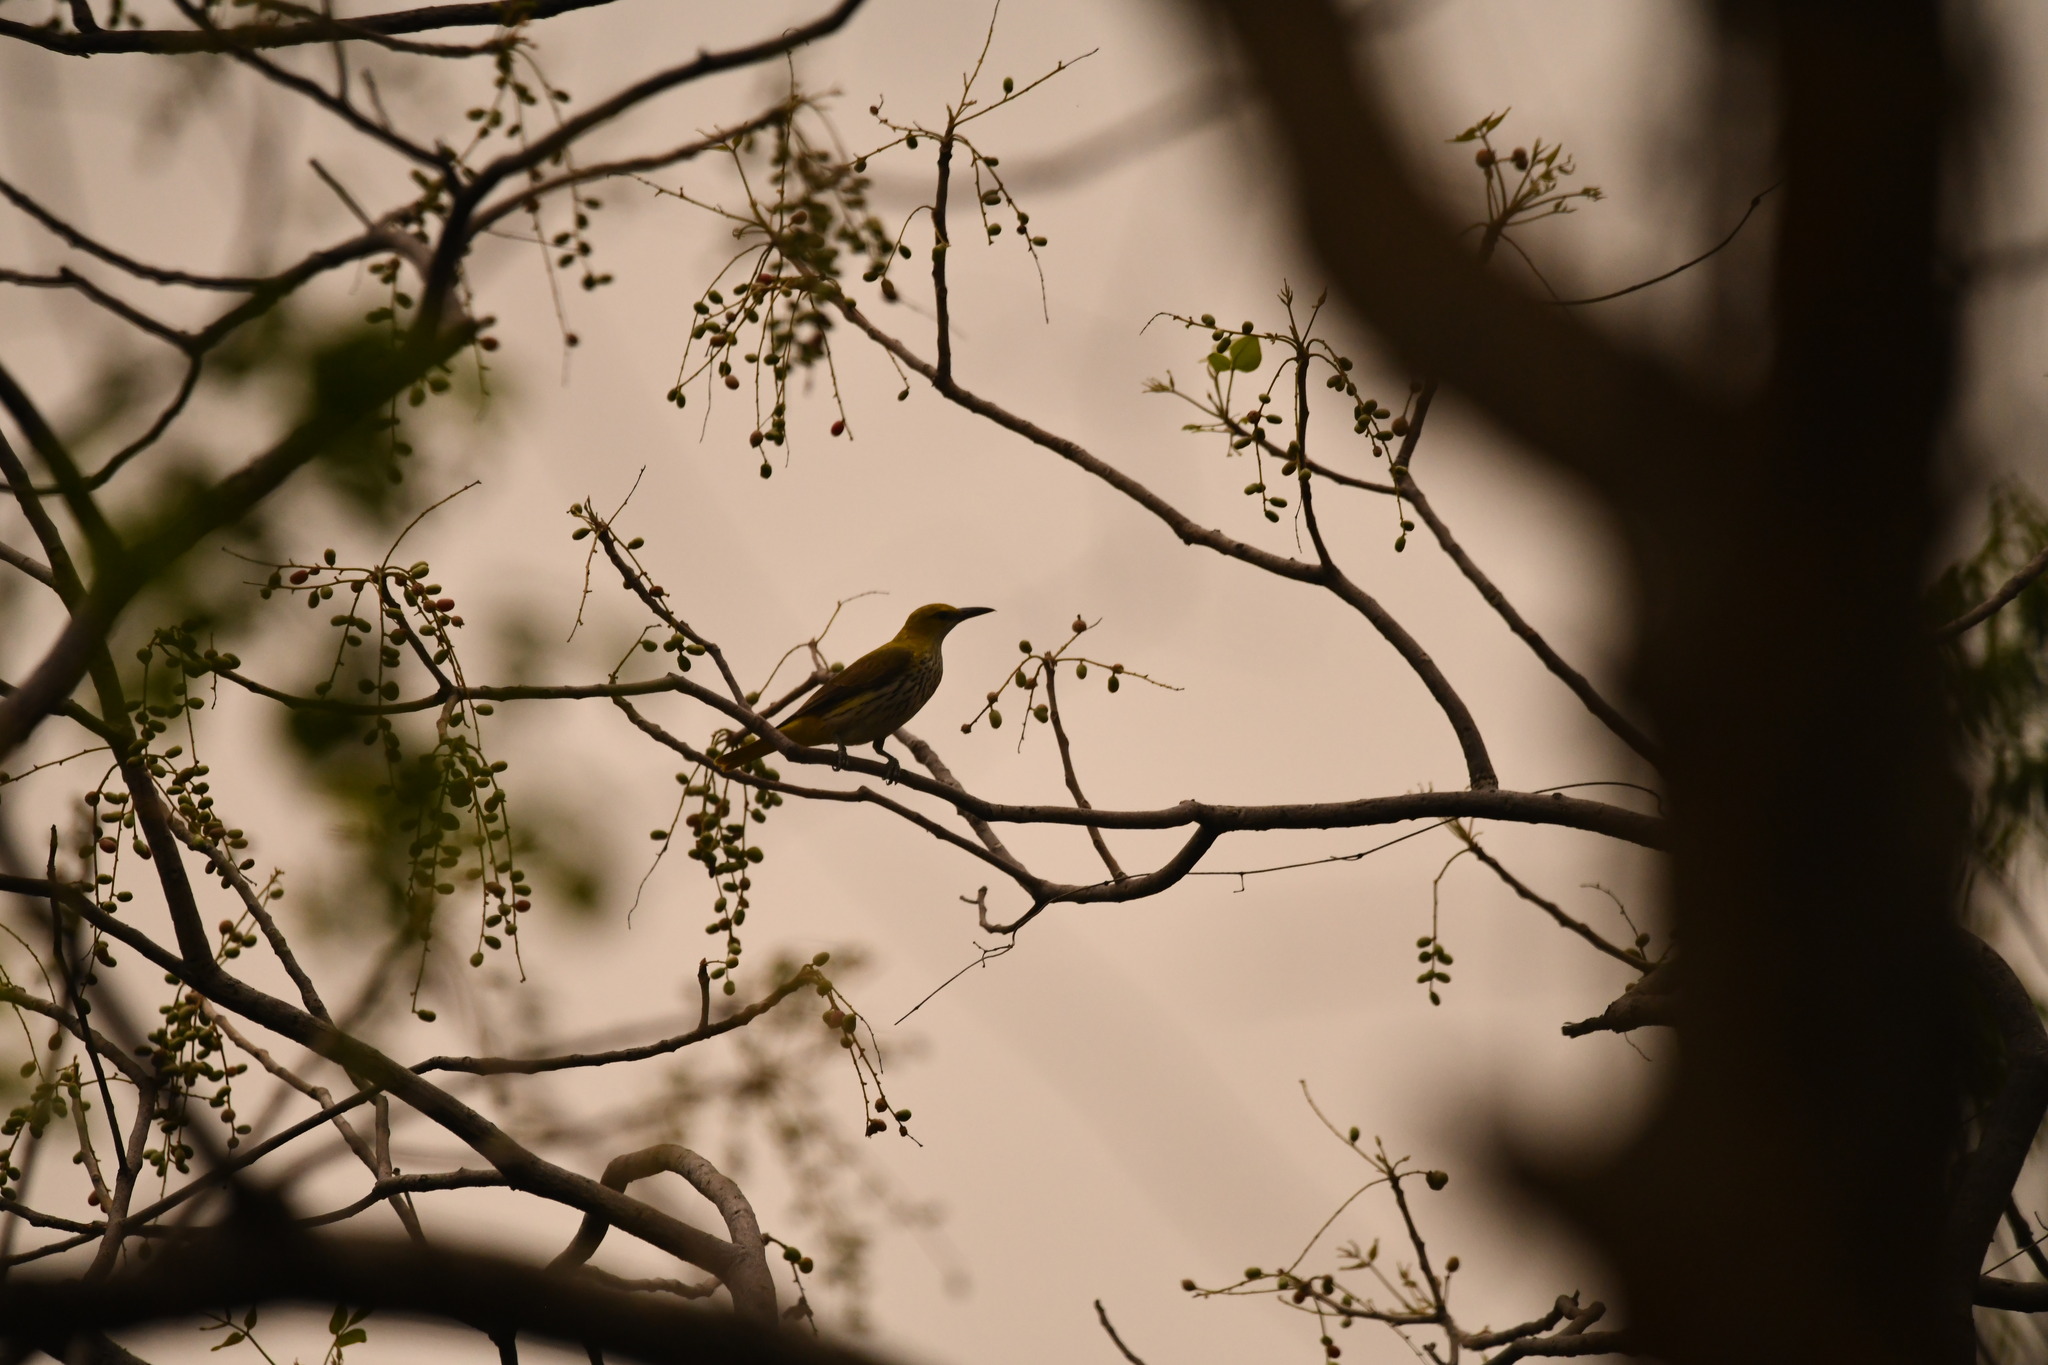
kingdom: Animalia
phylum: Chordata
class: Aves
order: Passeriformes
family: Oriolidae
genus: Oriolus
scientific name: Oriolus kundoo
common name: Indian golden oriole
